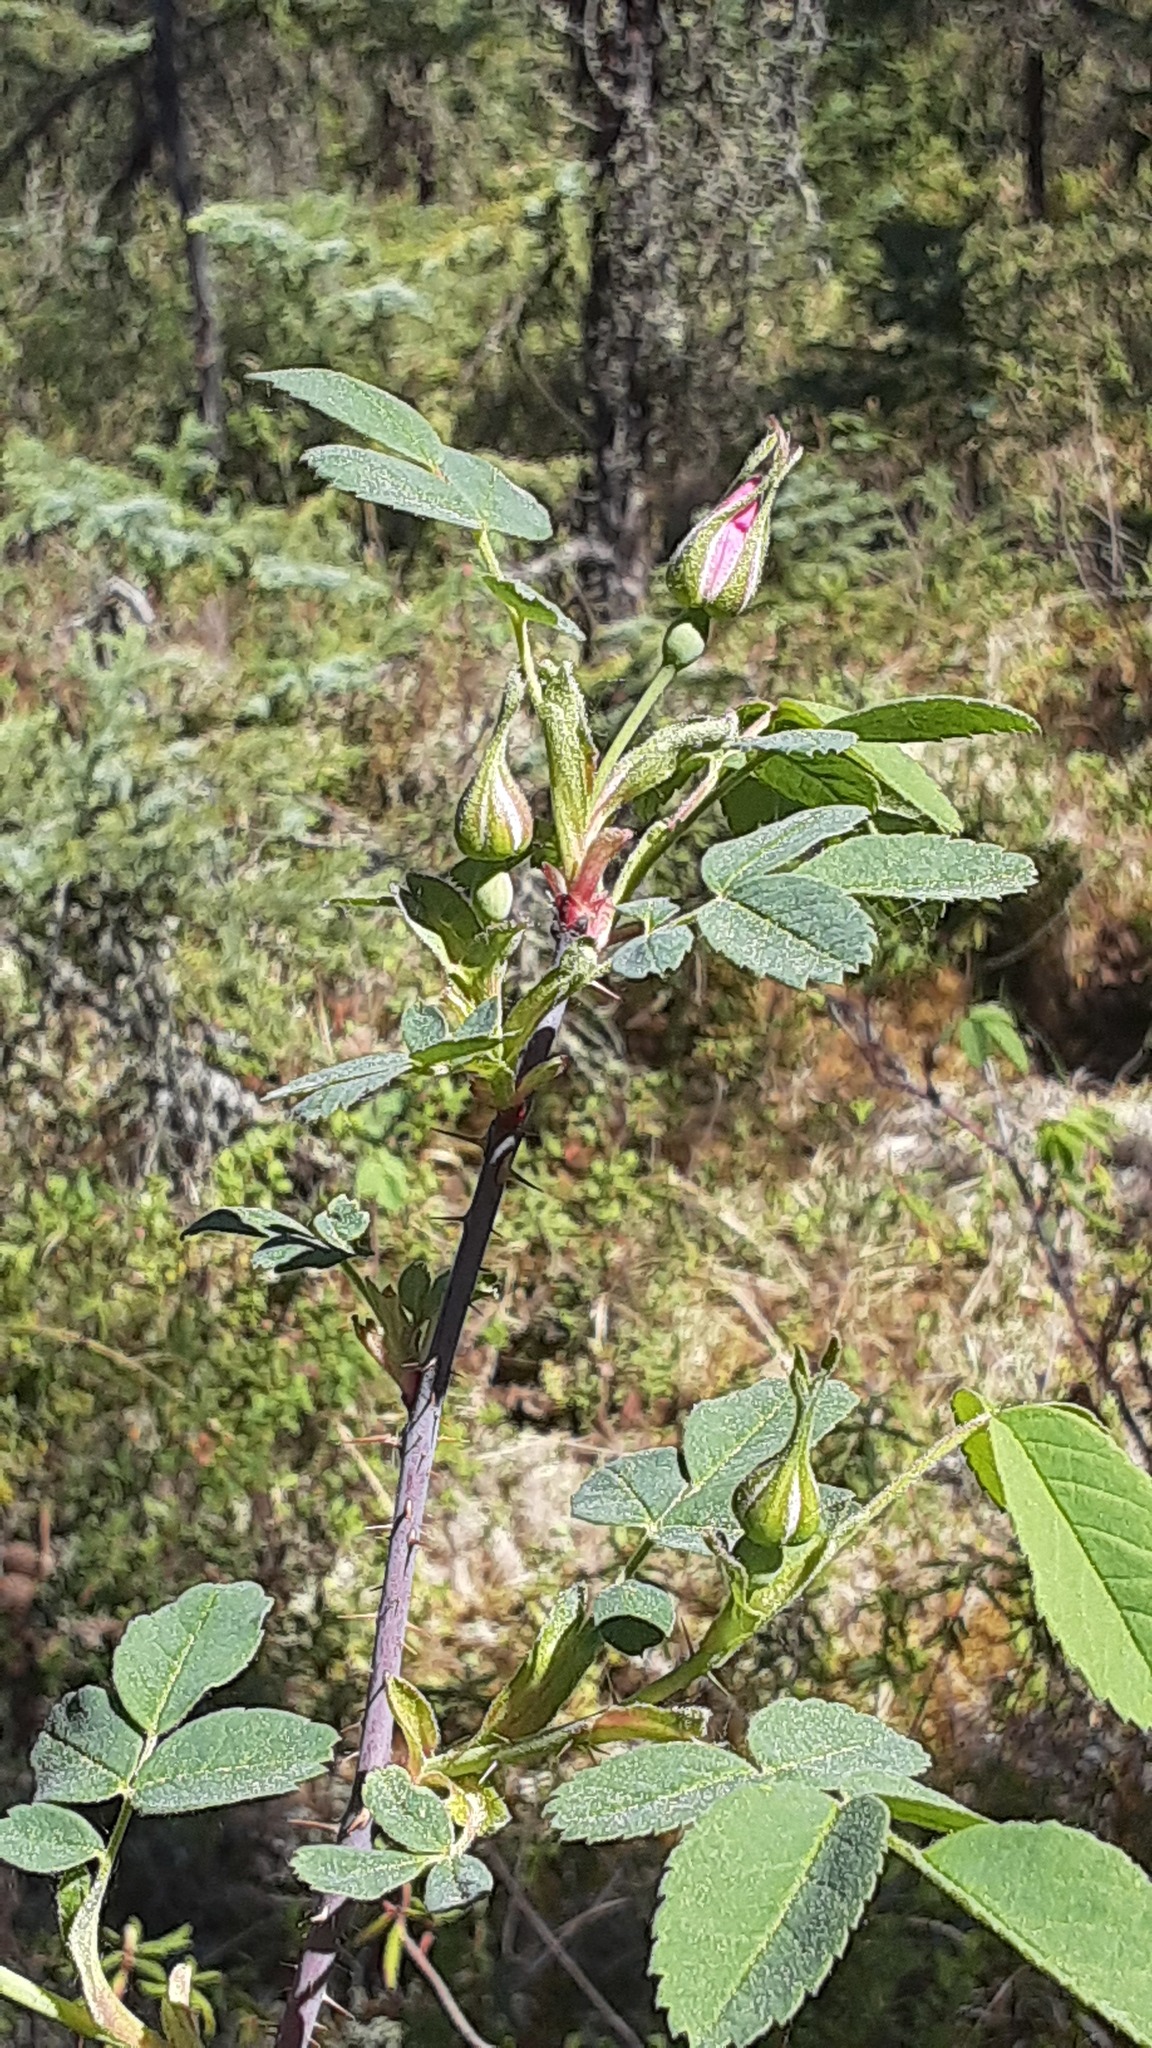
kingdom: Plantae
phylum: Tracheophyta
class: Magnoliopsida
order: Rosales
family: Rosaceae
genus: Rosa
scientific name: Rosa acicularis
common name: Prickly rose
